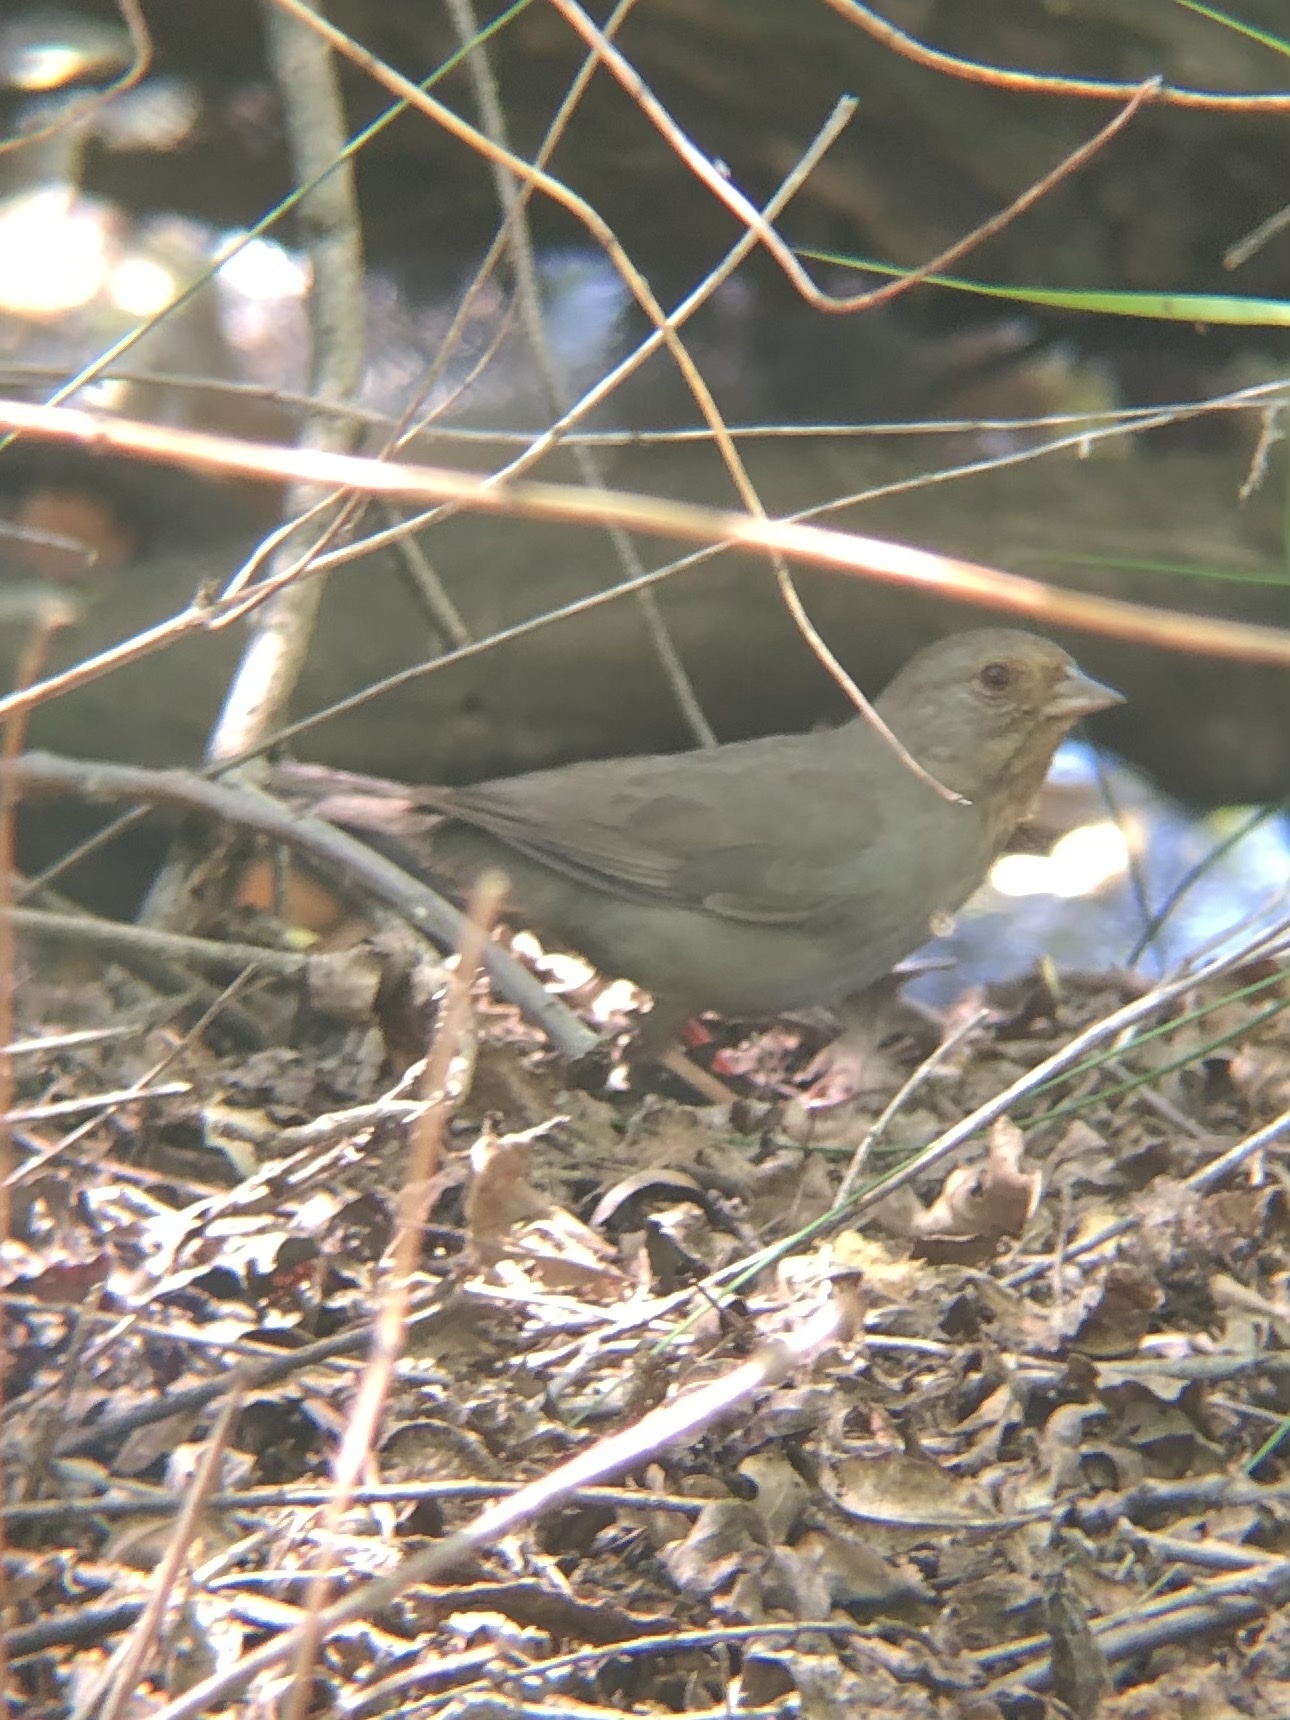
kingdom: Animalia
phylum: Chordata
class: Aves
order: Passeriformes
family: Passerellidae
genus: Melozone
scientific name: Melozone crissalis
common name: California towhee
